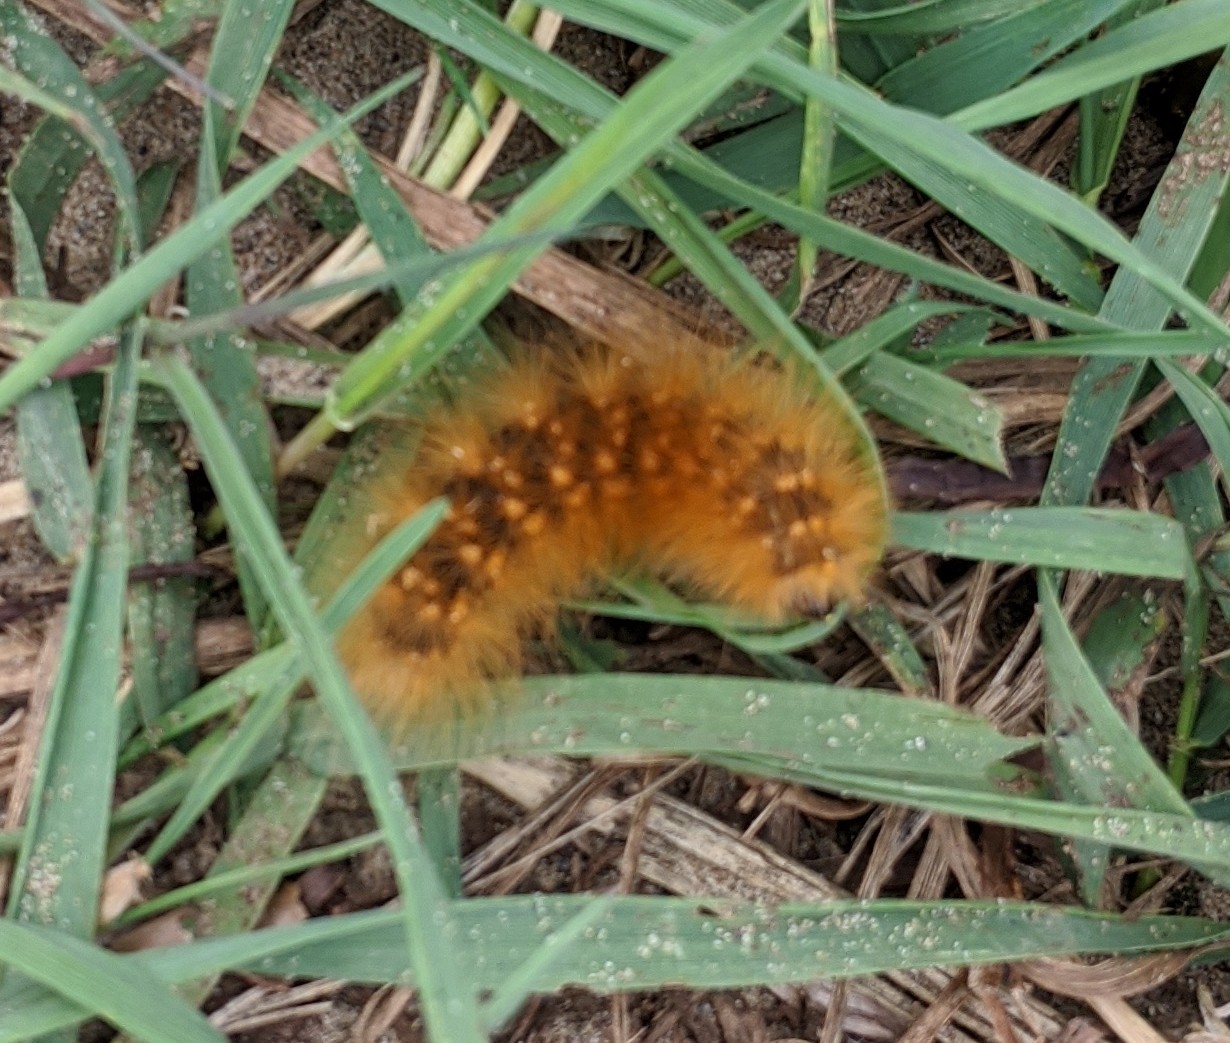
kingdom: Animalia
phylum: Arthropoda
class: Insecta
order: Lepidoptera
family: Erebidae
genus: Estigmene
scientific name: Estigmene acrea
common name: Salt marsh moth
